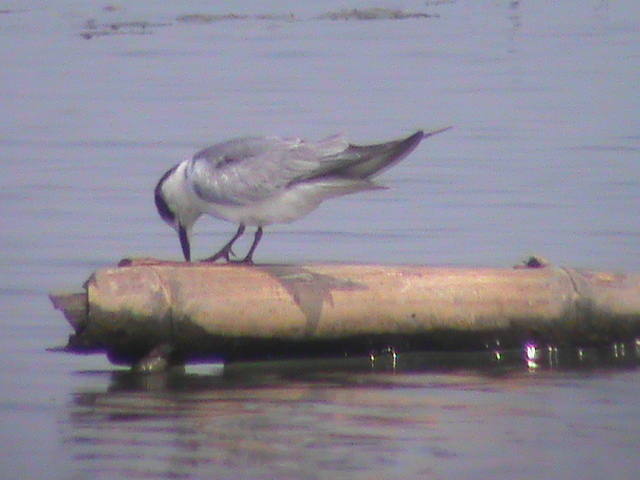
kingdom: Animalia
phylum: Chordata
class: Aves
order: Charadriiformes
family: Laridae
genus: Chlidonias
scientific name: Chlidonias hybrida
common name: Whiskered tern
